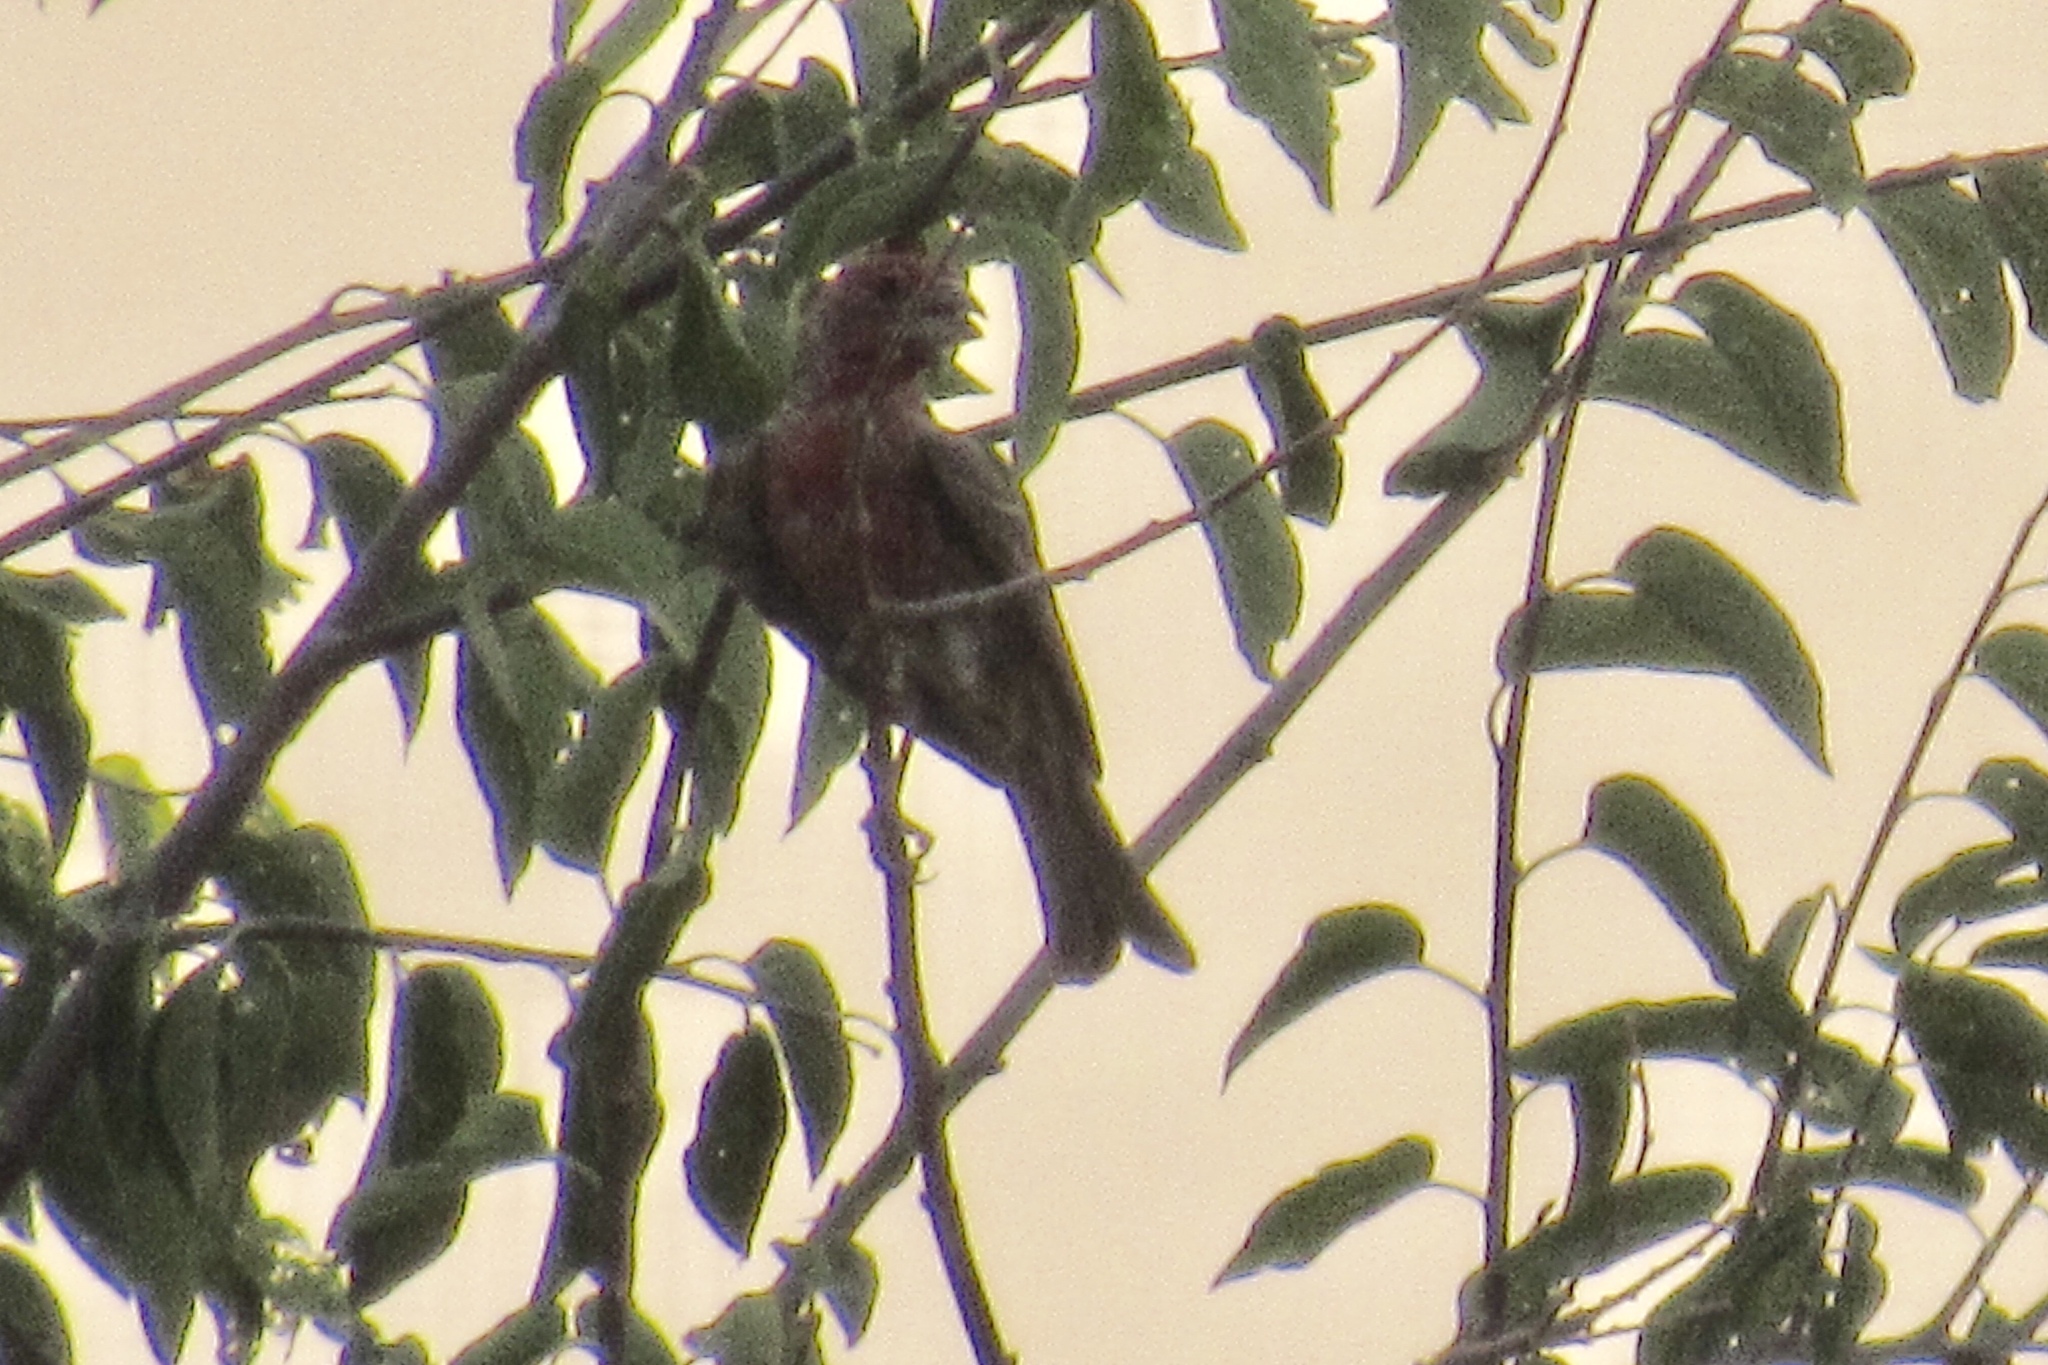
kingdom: Animalia
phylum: Chordata
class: Aves
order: Passeriformes
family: Fringillidae
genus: Haemorhous
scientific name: Haemorhous mexicanus
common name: House finch
